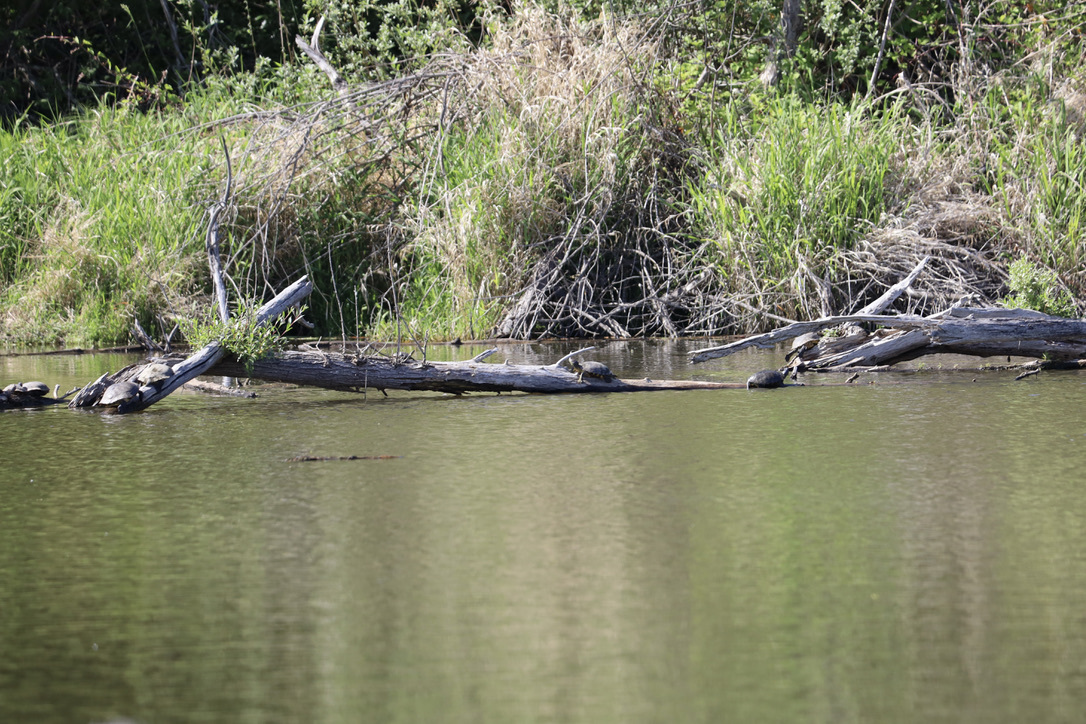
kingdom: Animalia
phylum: Chordata
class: Testudines
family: Emydidae
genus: Trachemys
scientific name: Trachemys scripta
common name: Slider
